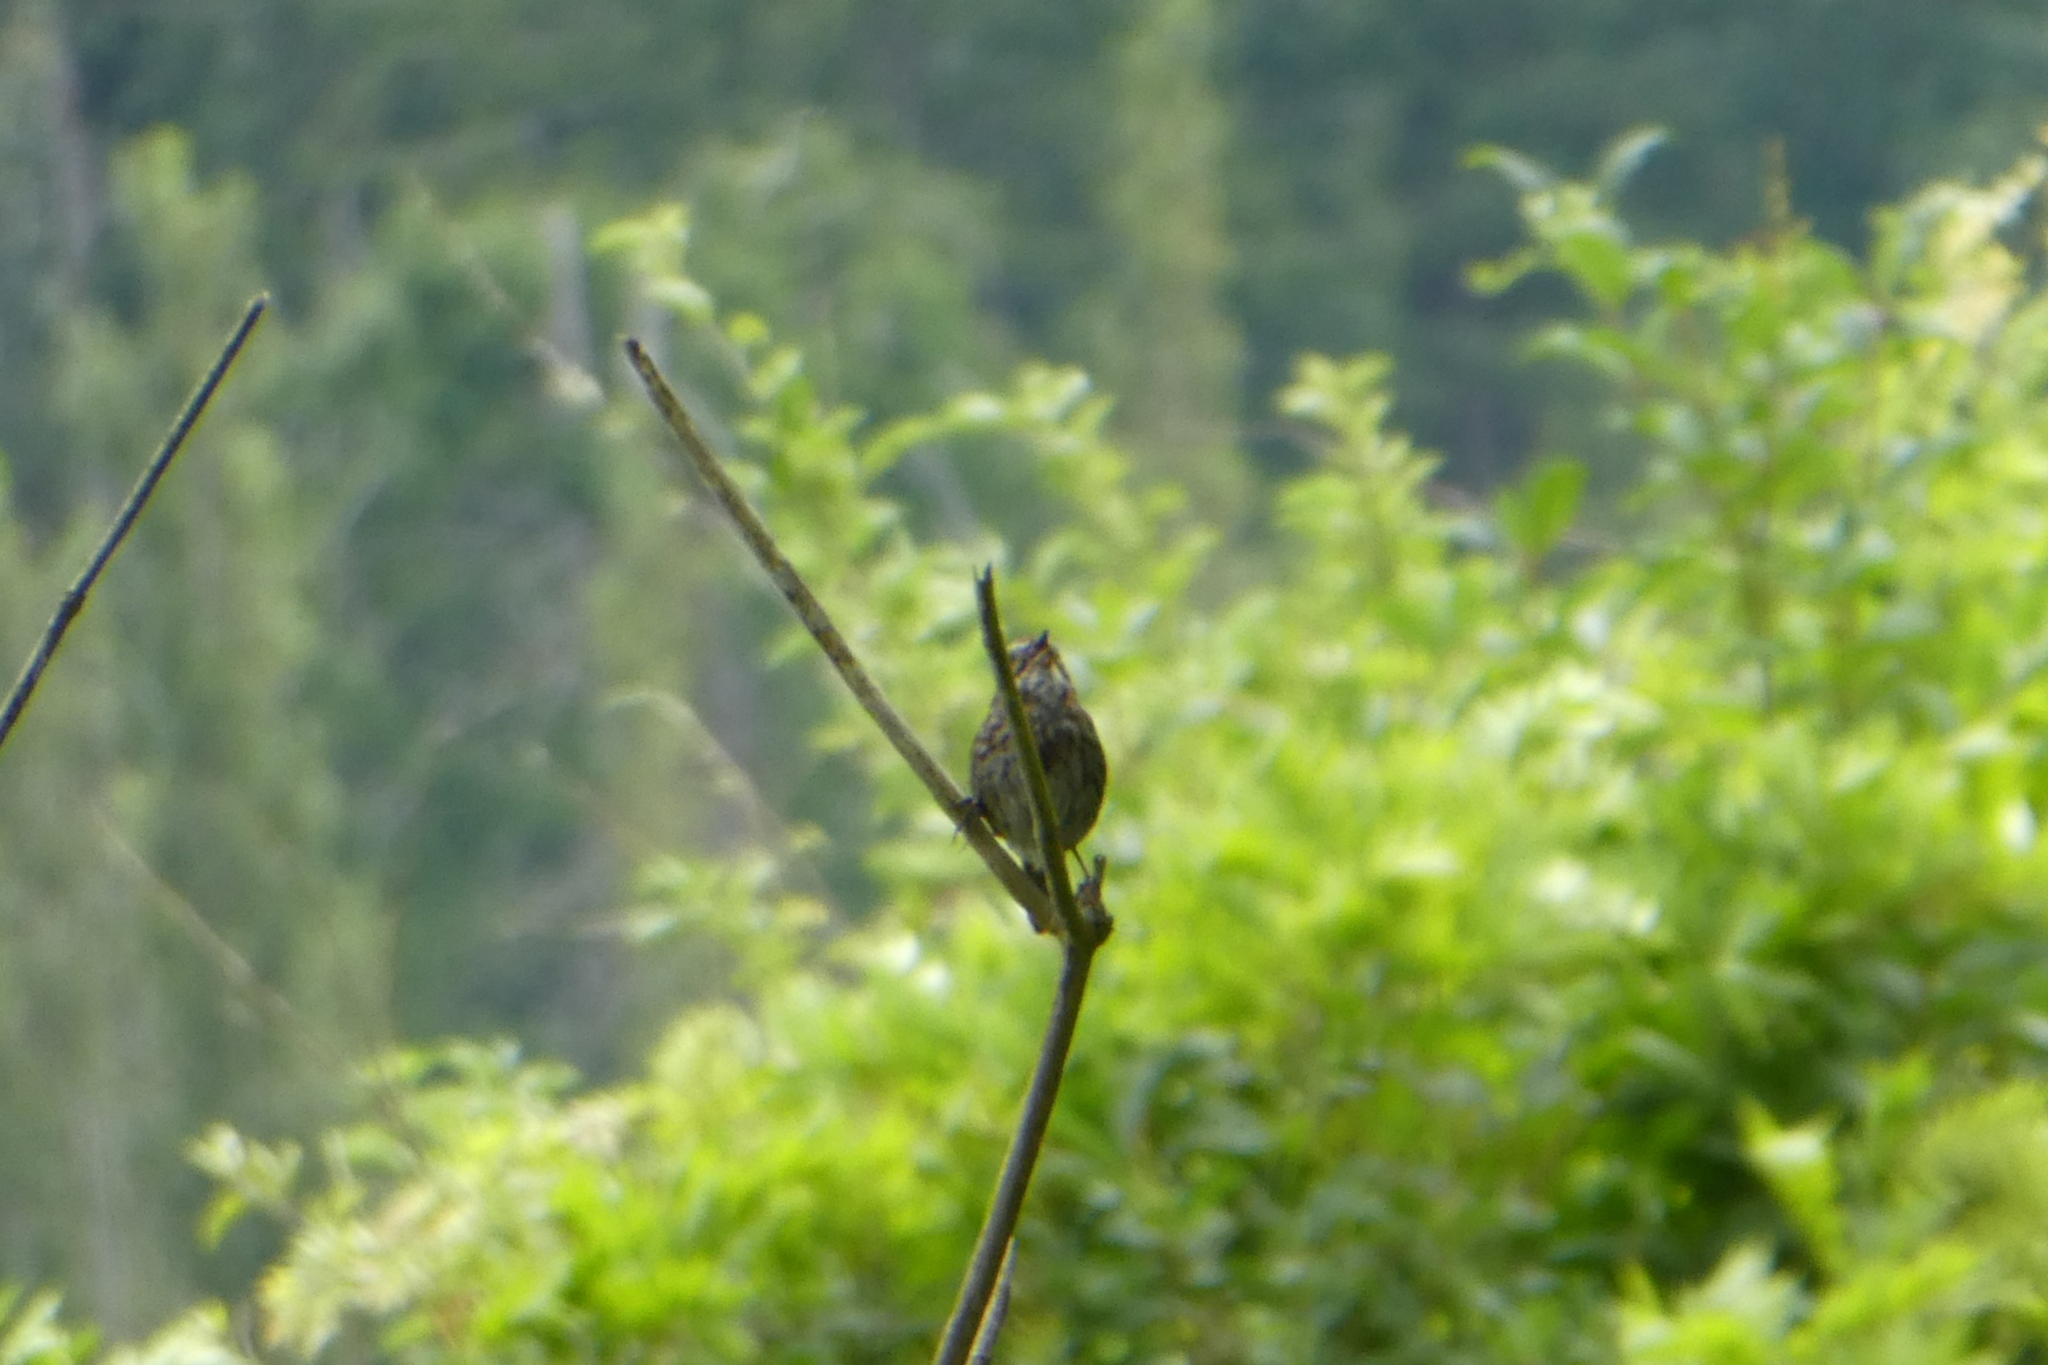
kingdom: Animalia
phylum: Chordata
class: Aves
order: Passeriformes
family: Passerellidae
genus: Melospiza
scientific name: Melospiza melodia
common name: Song sparrow
